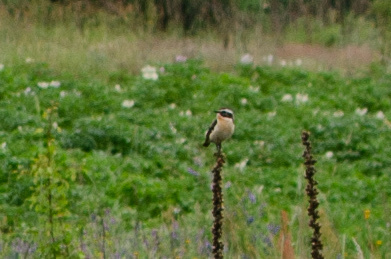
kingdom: Animalia
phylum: Chordata
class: Aves
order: Passeriformes
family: Muscicapidae
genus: Saxicola
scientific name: Saxicola rubetra
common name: Whinchat
